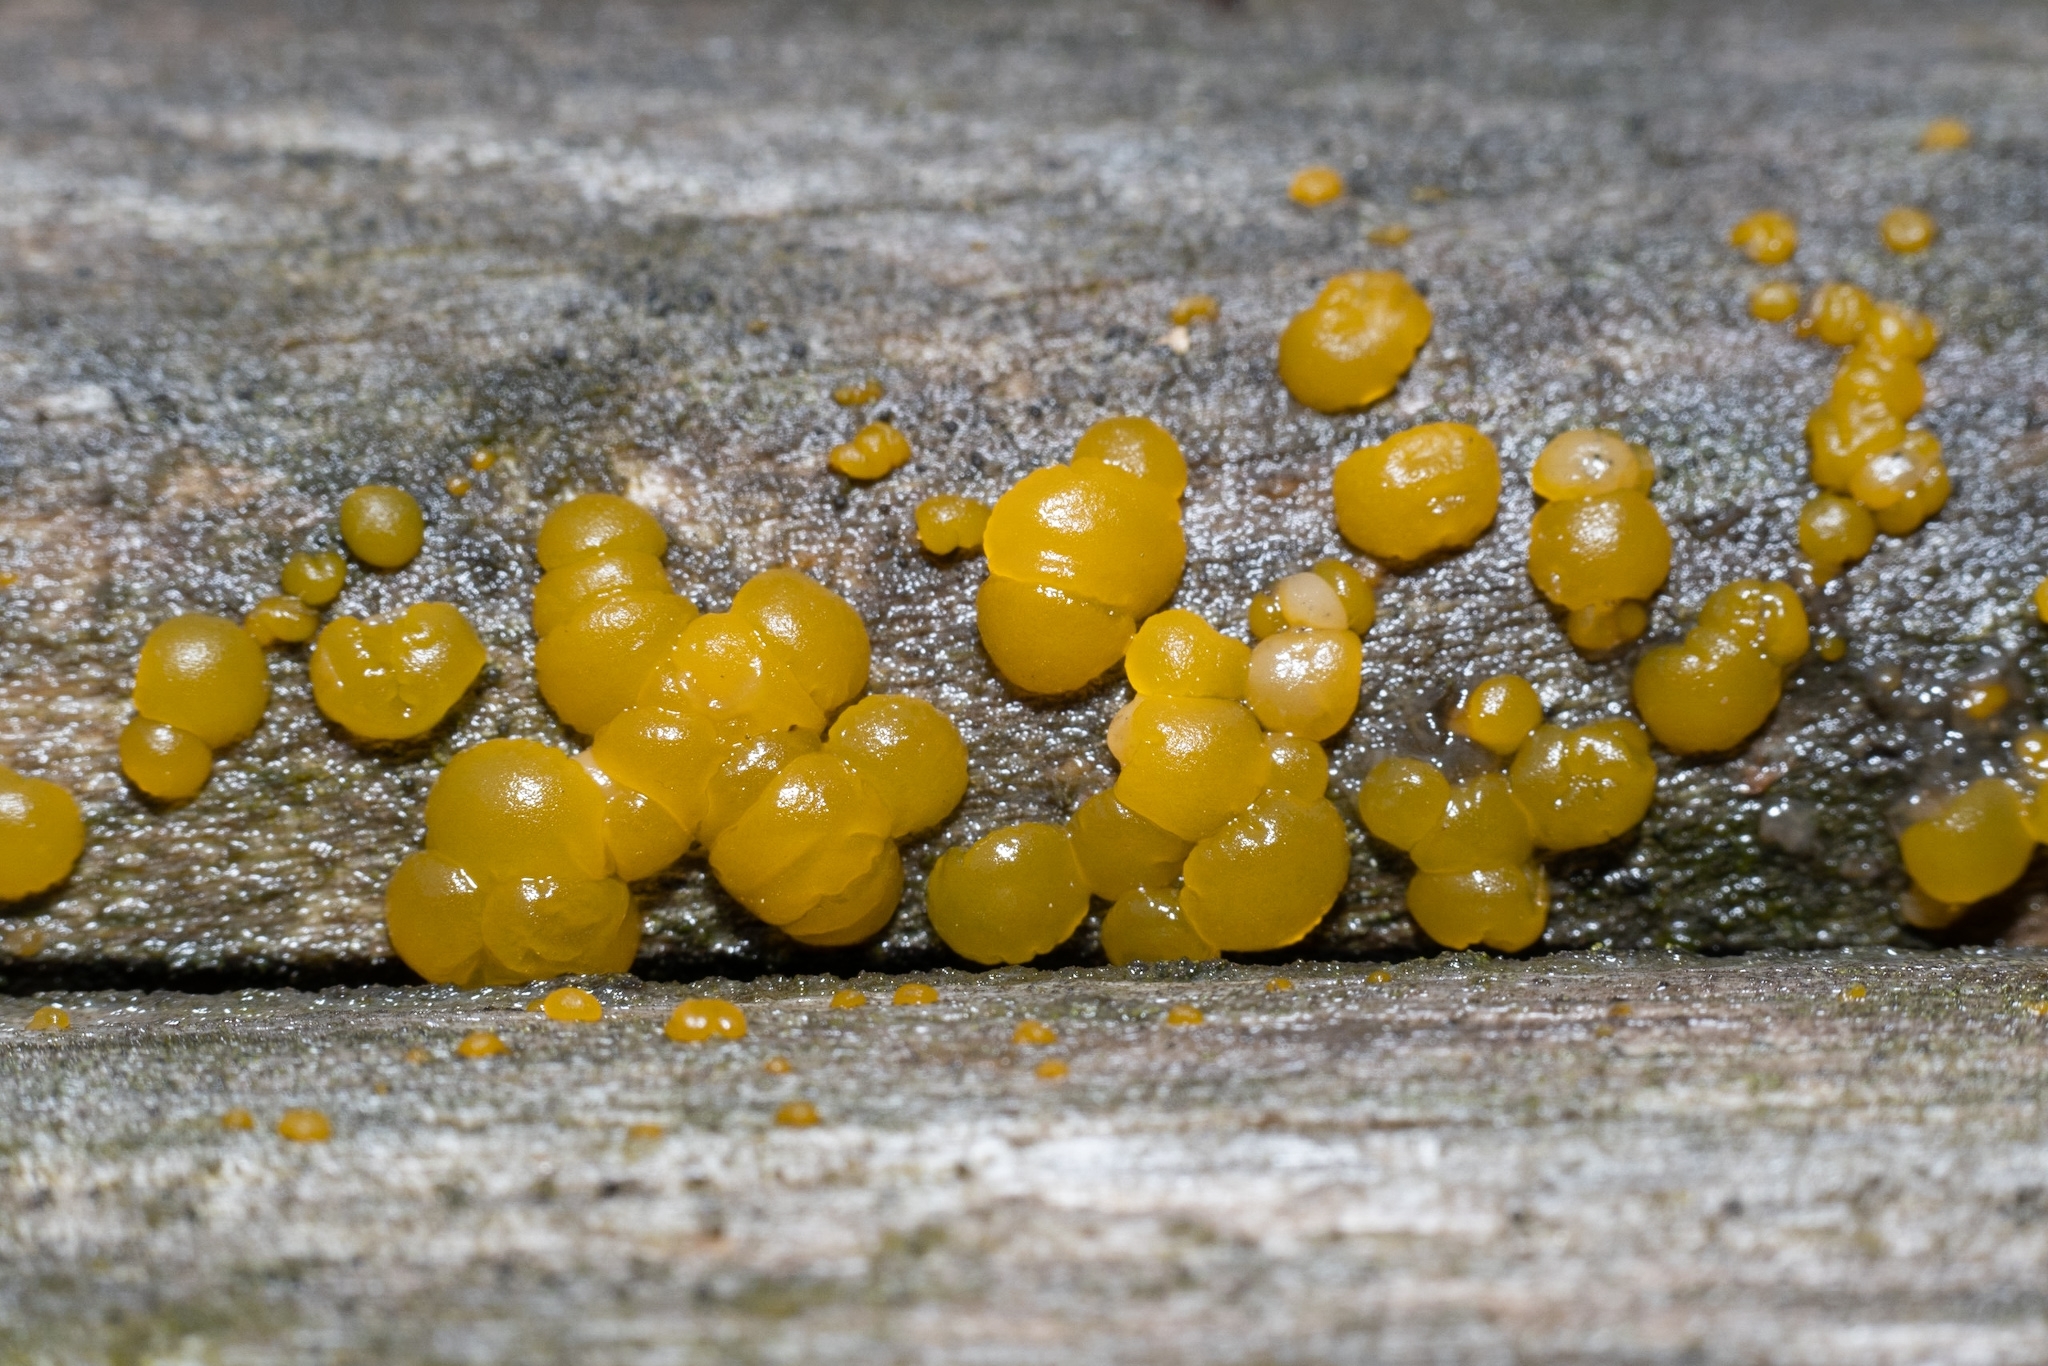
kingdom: Fungi
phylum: Basidiomycota
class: Dacrymycetes
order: Dacrymycetales
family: Dacrymycetaceae
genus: Dacrymyces
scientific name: Dacrymyces stillatus
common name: Common jelly spot
